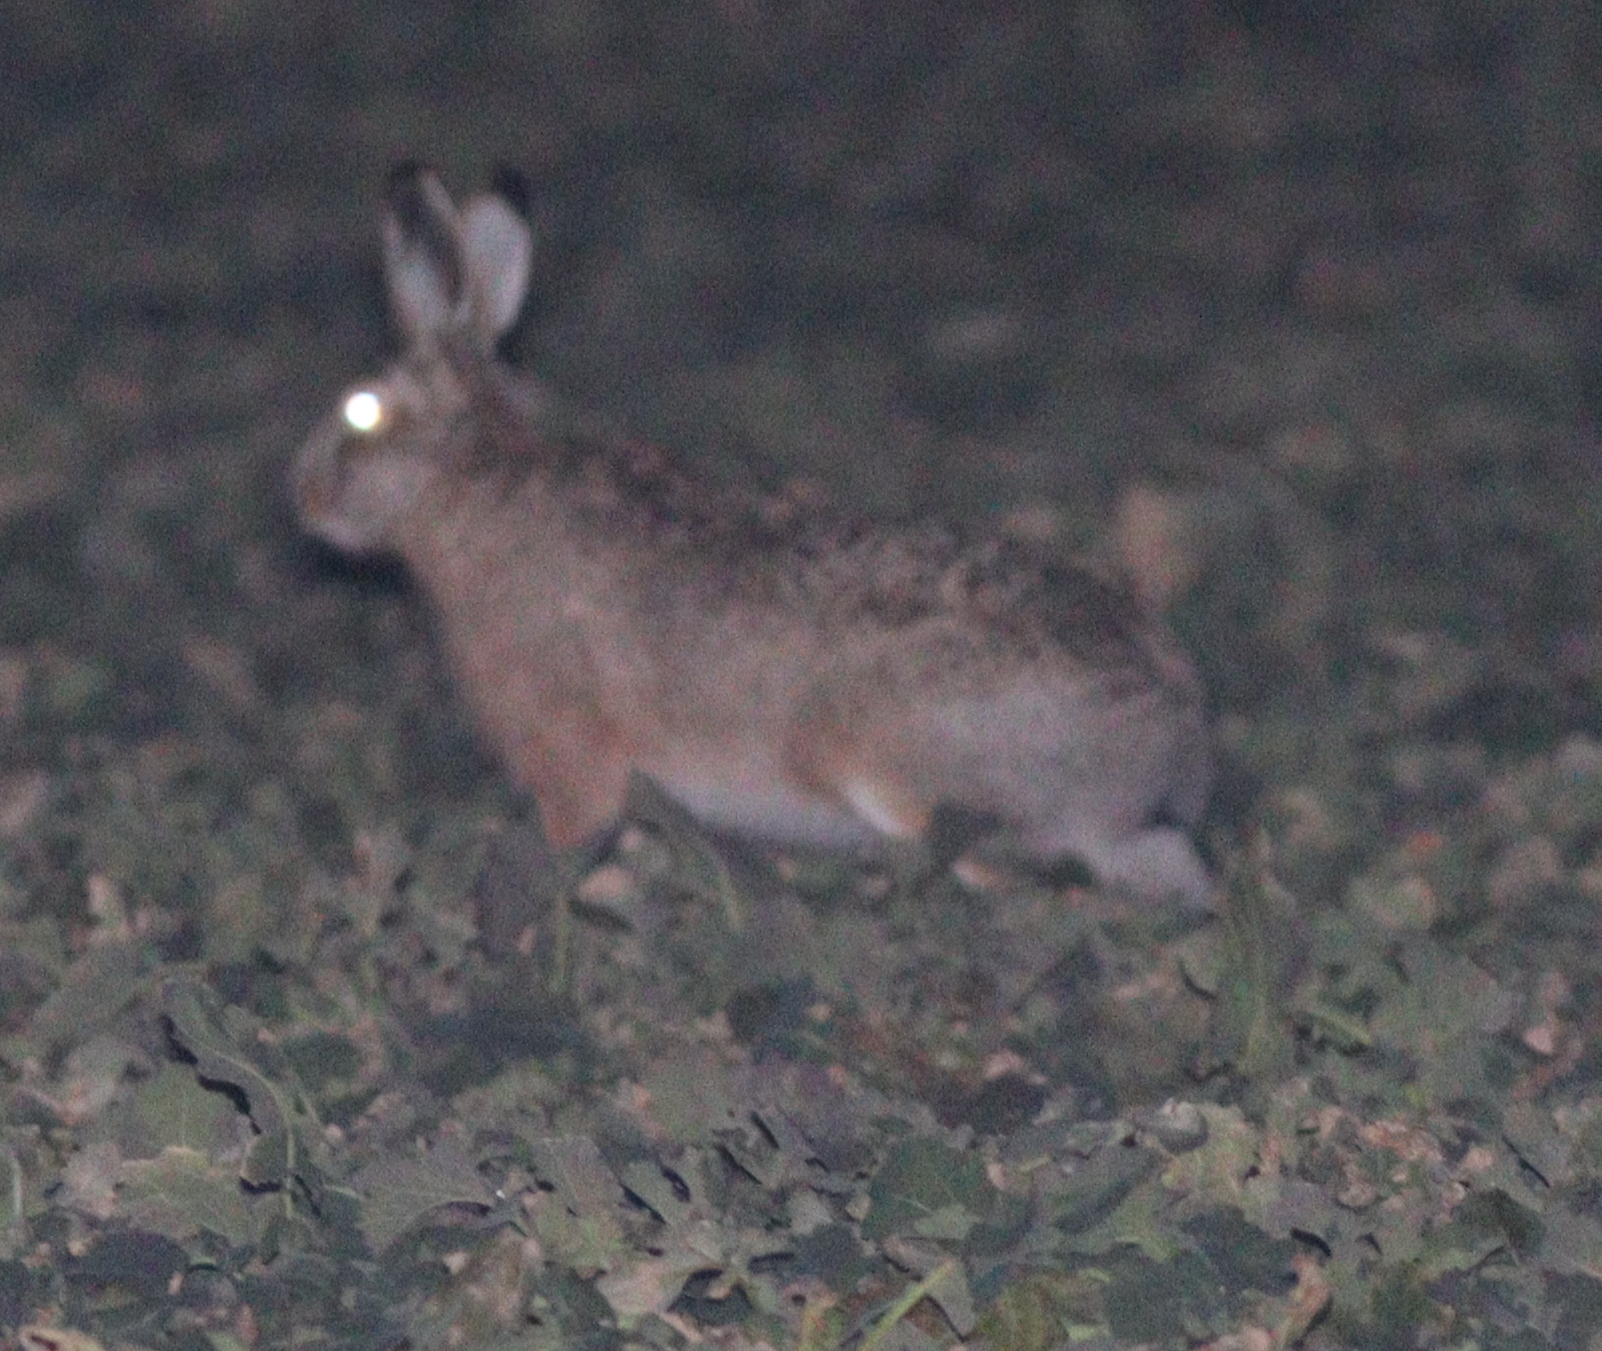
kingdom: Animalia
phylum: Chordata
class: Mammalia
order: Lagomorpha
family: Leporidae
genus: Lepus
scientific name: Lepus europaeus
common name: European hare
